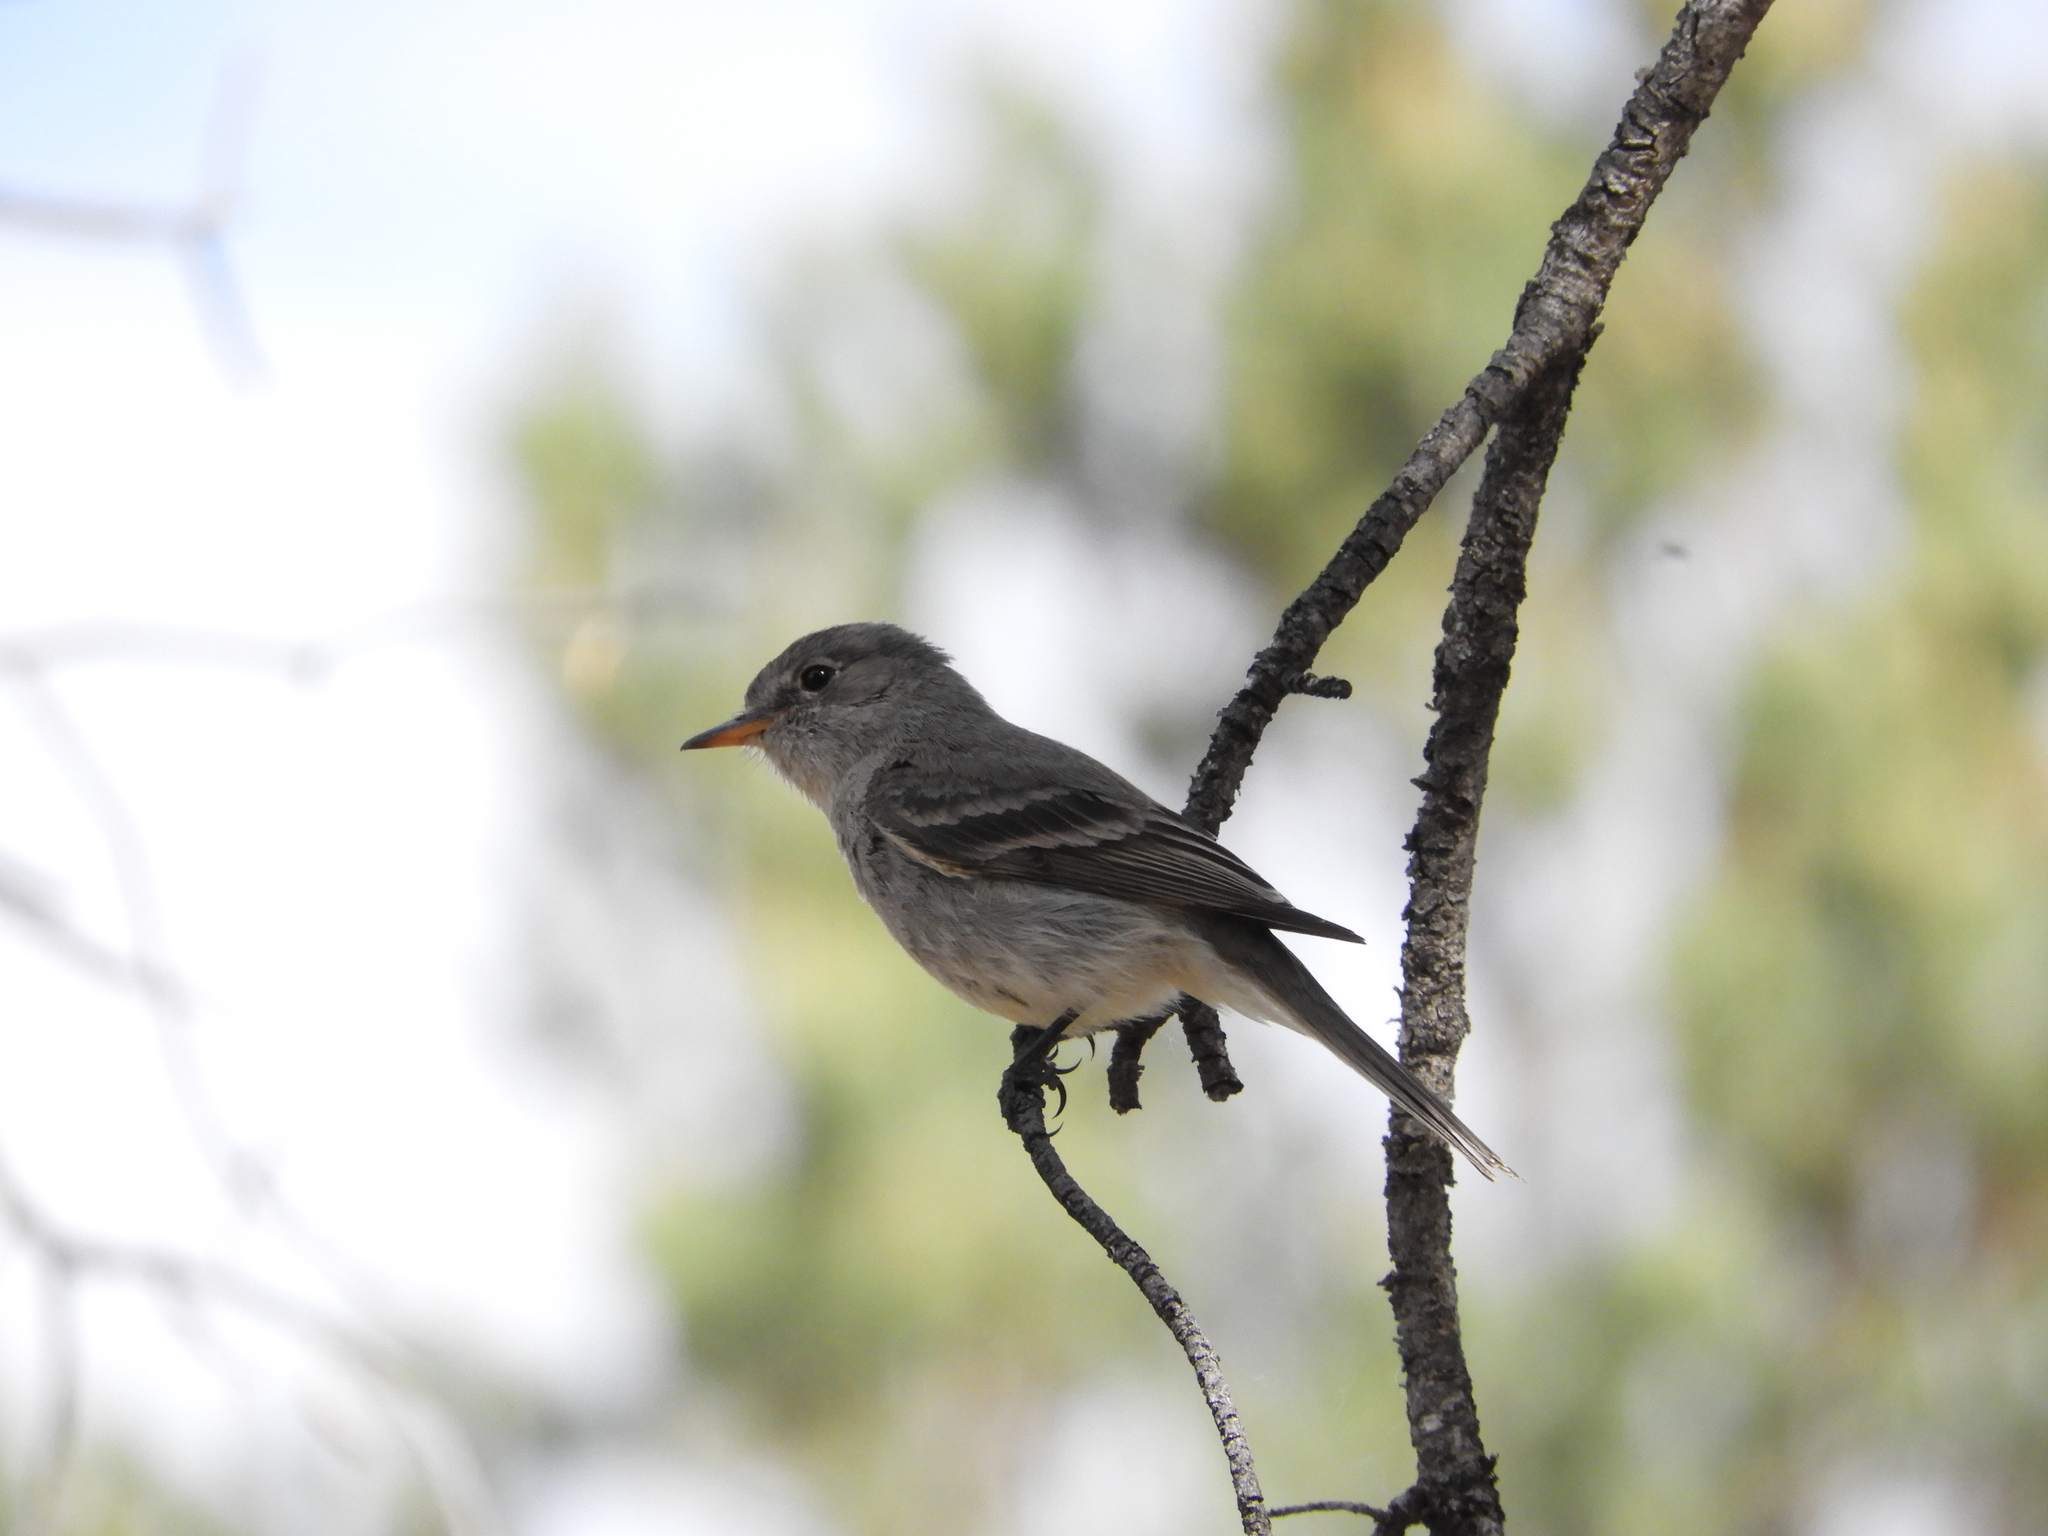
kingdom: Animalia
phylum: Chordata
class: Aves
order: Passeriformes
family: Tyrannidae
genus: Empidonax
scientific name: Empidonax wrightii
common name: Gray flycatcher
